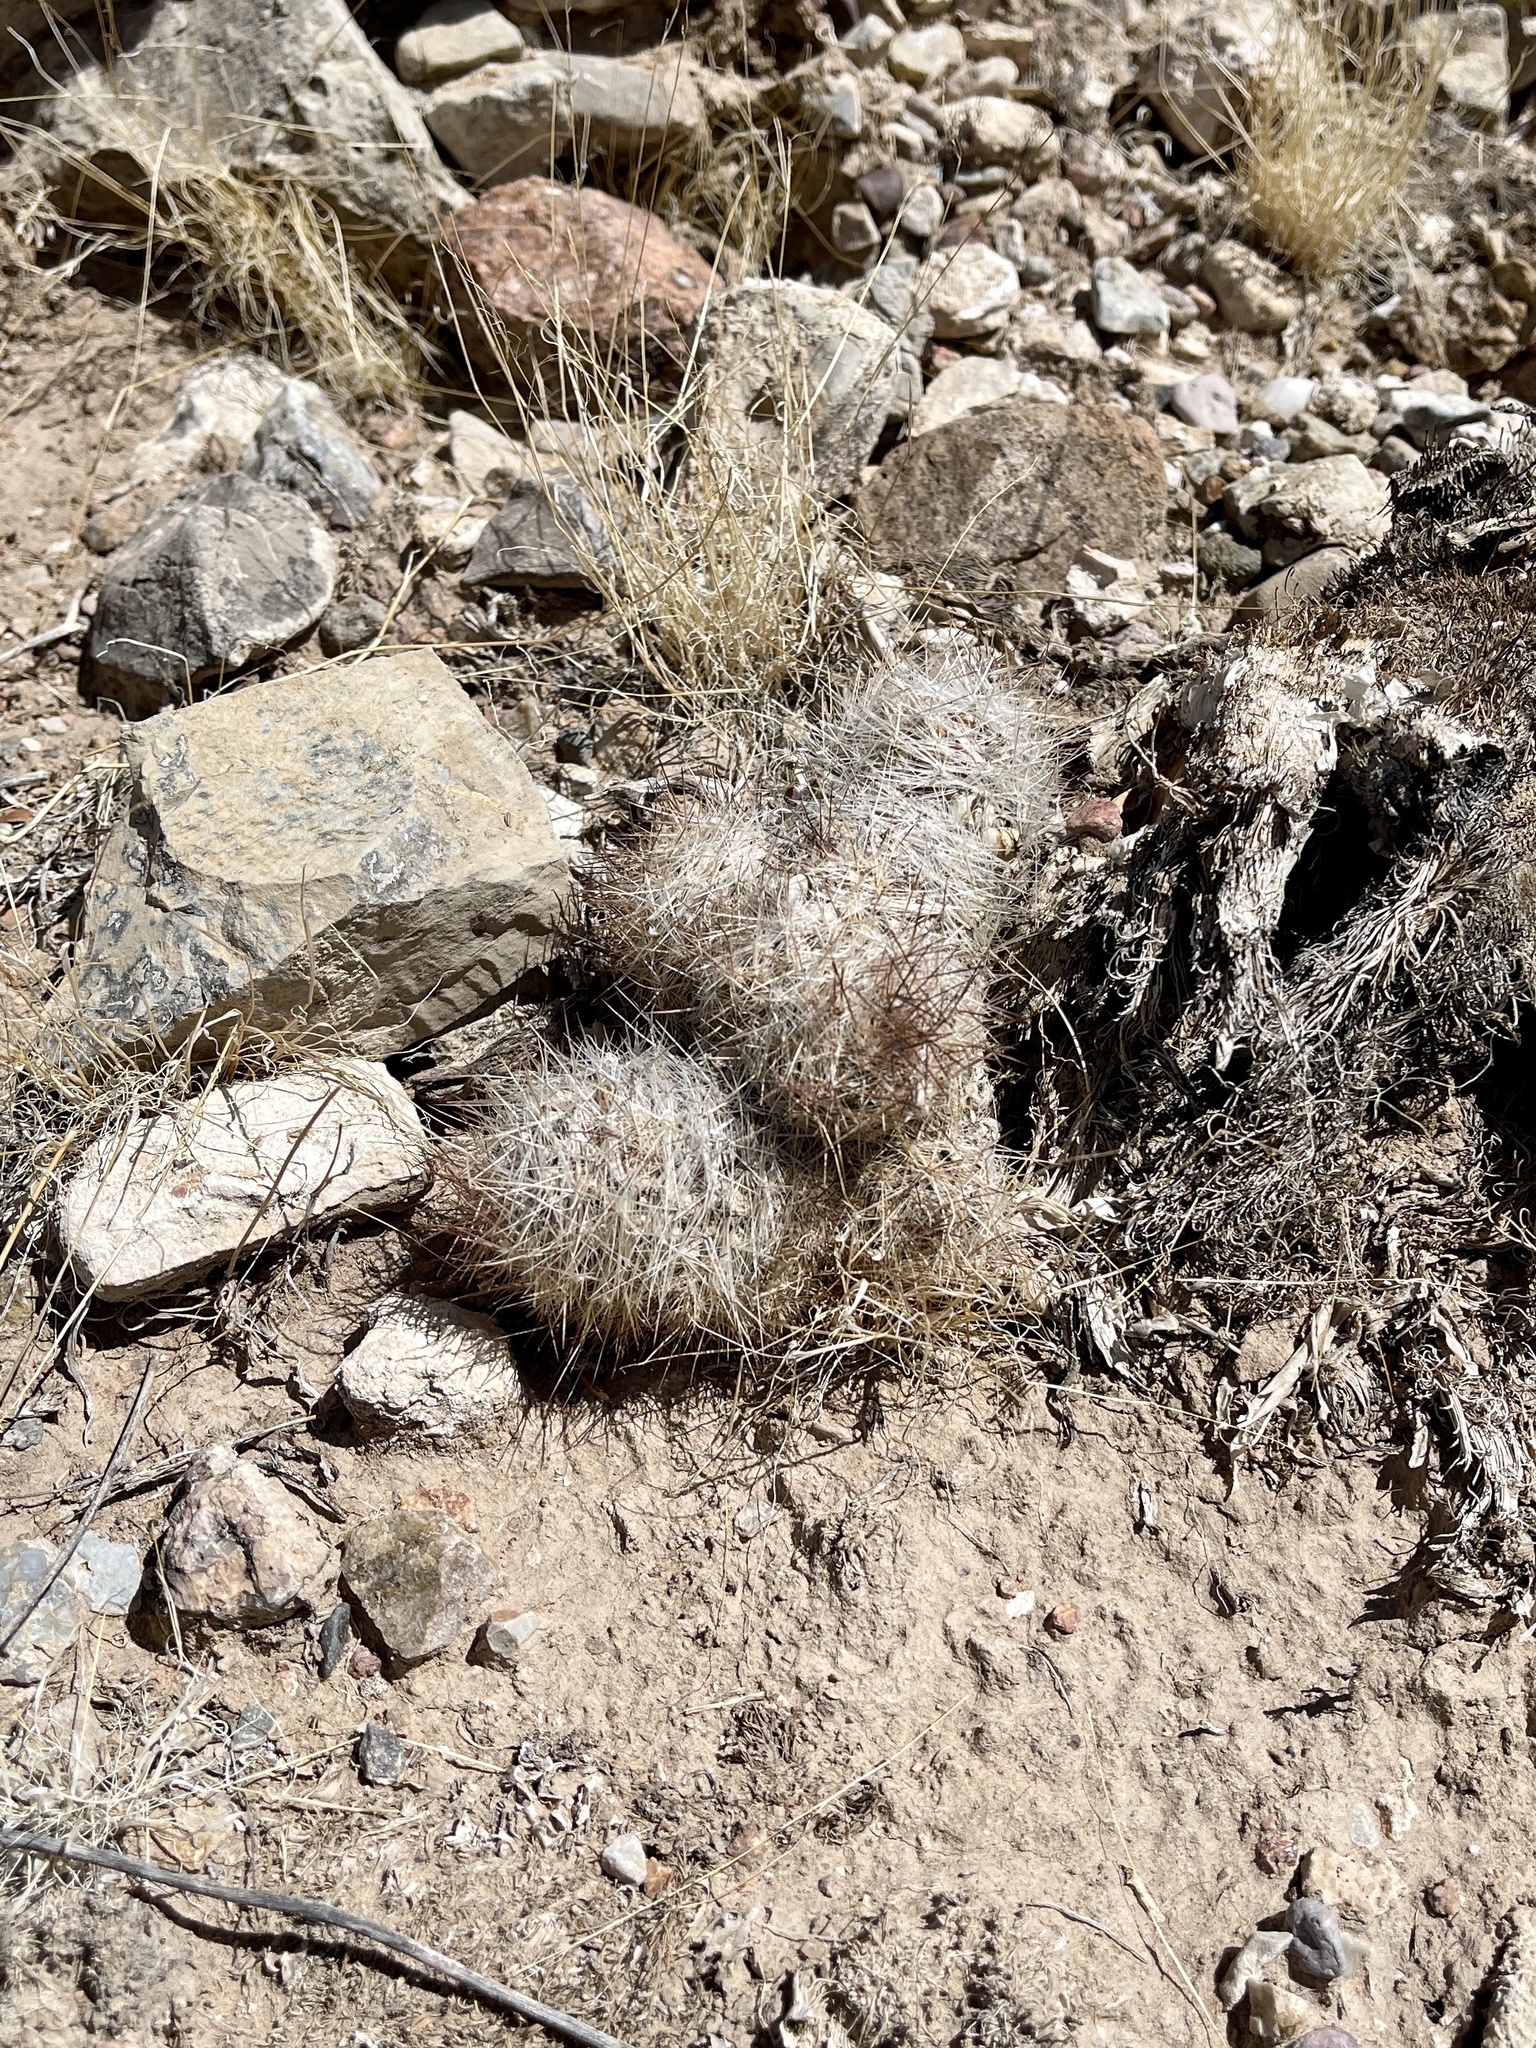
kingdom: Plantae
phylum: Tracheophyta
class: Magnoliopsida
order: Caryophyllales
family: Cactaceae
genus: Pelecyphora
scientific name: Pelecyphora tuberculosa
